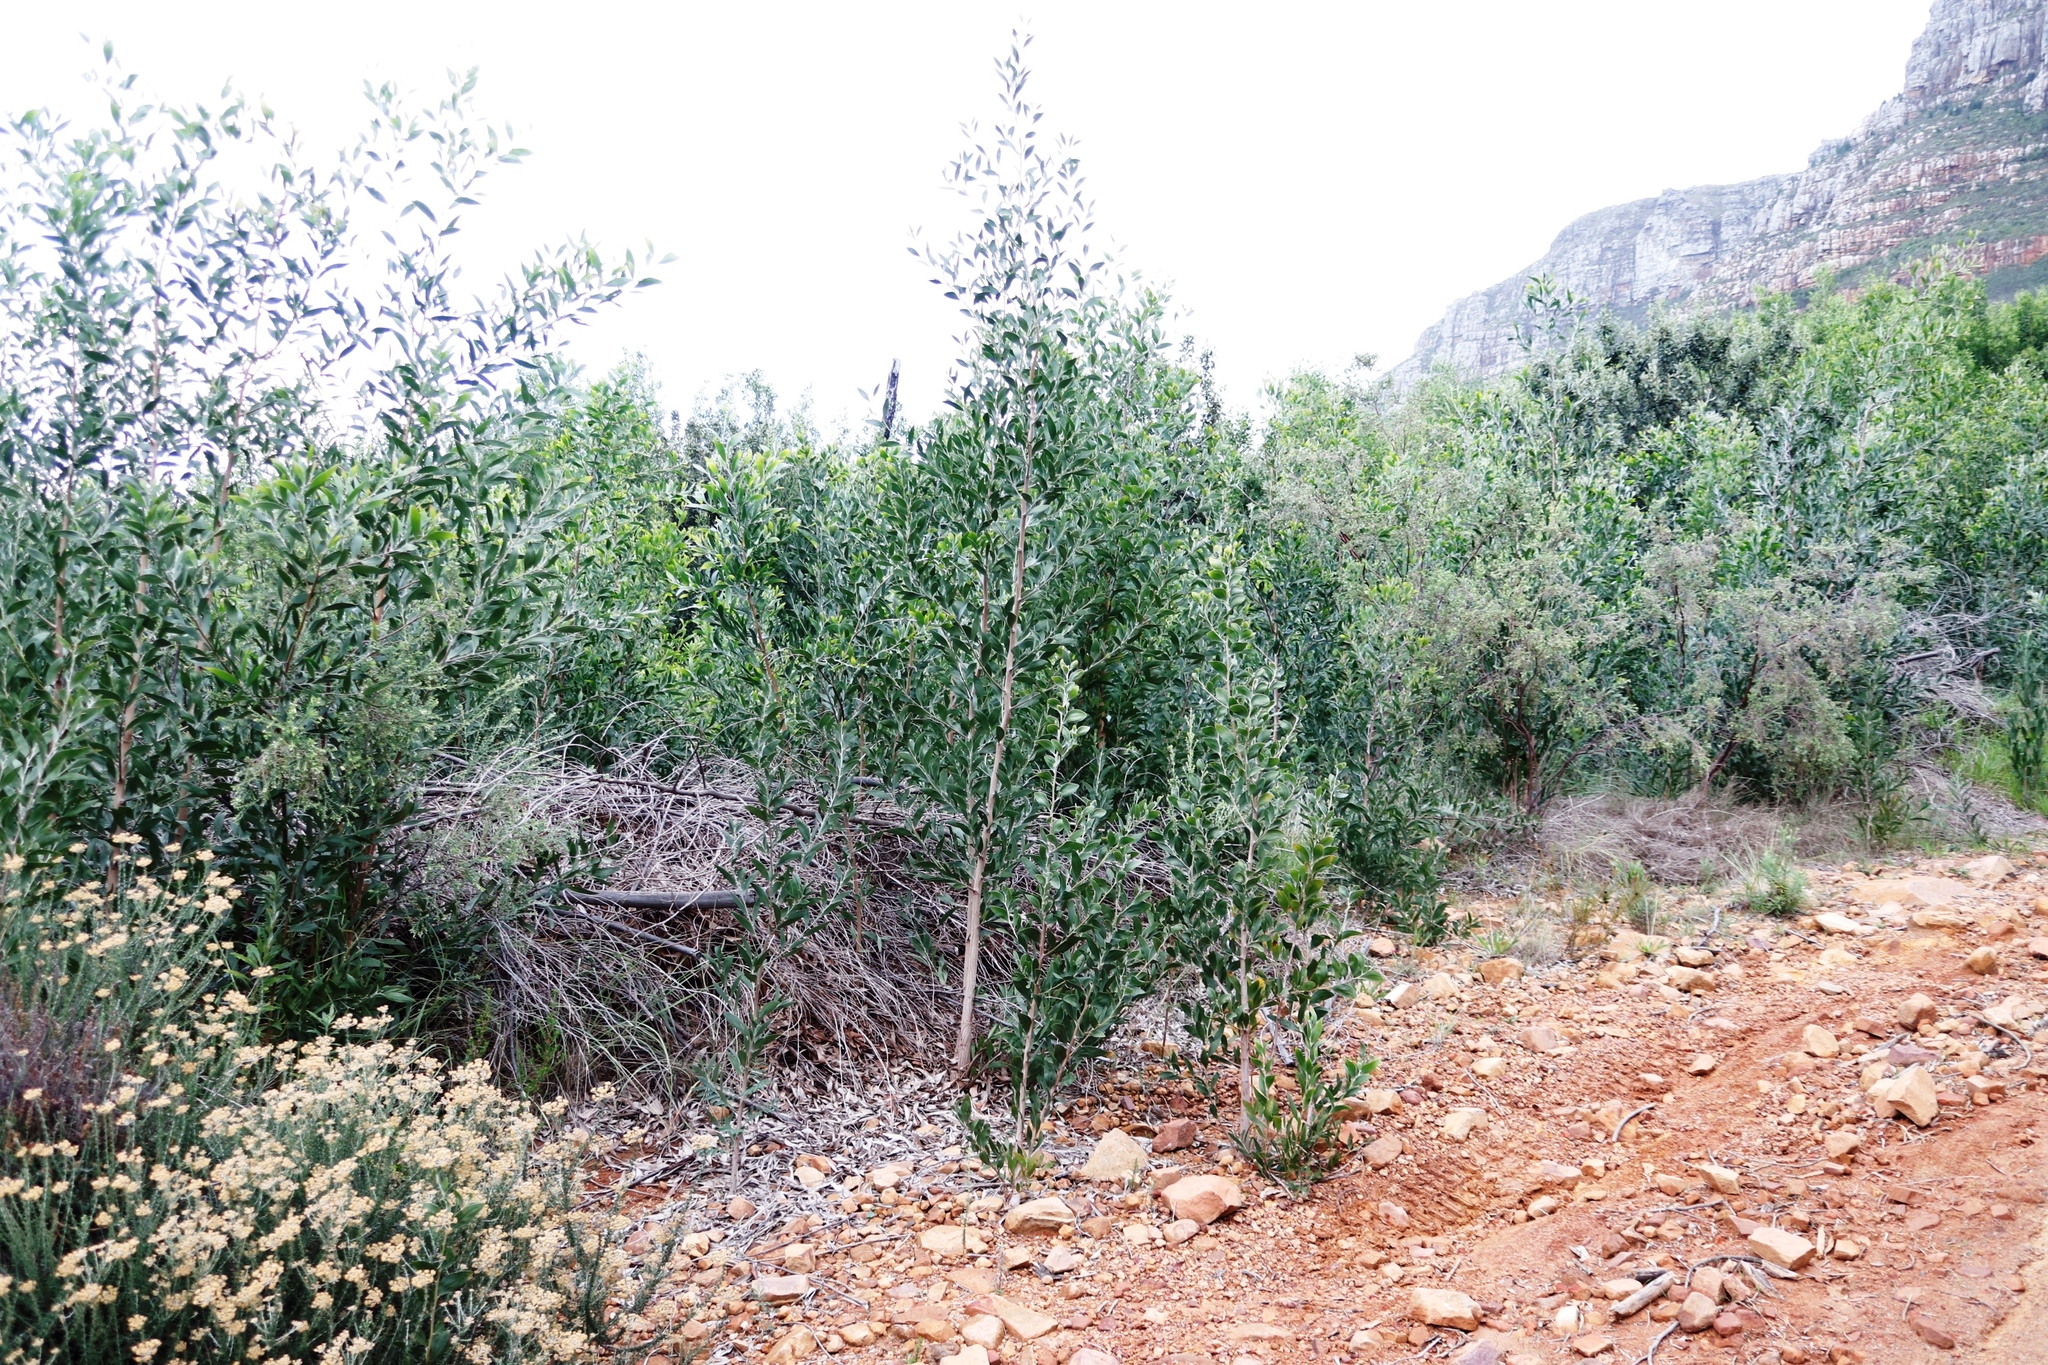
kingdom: Plantae
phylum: Tracheophyta
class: Magnoliopsida
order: Fabales
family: Fabaceae
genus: Acacia
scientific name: Acacia melanoxylon
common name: Blackwood
